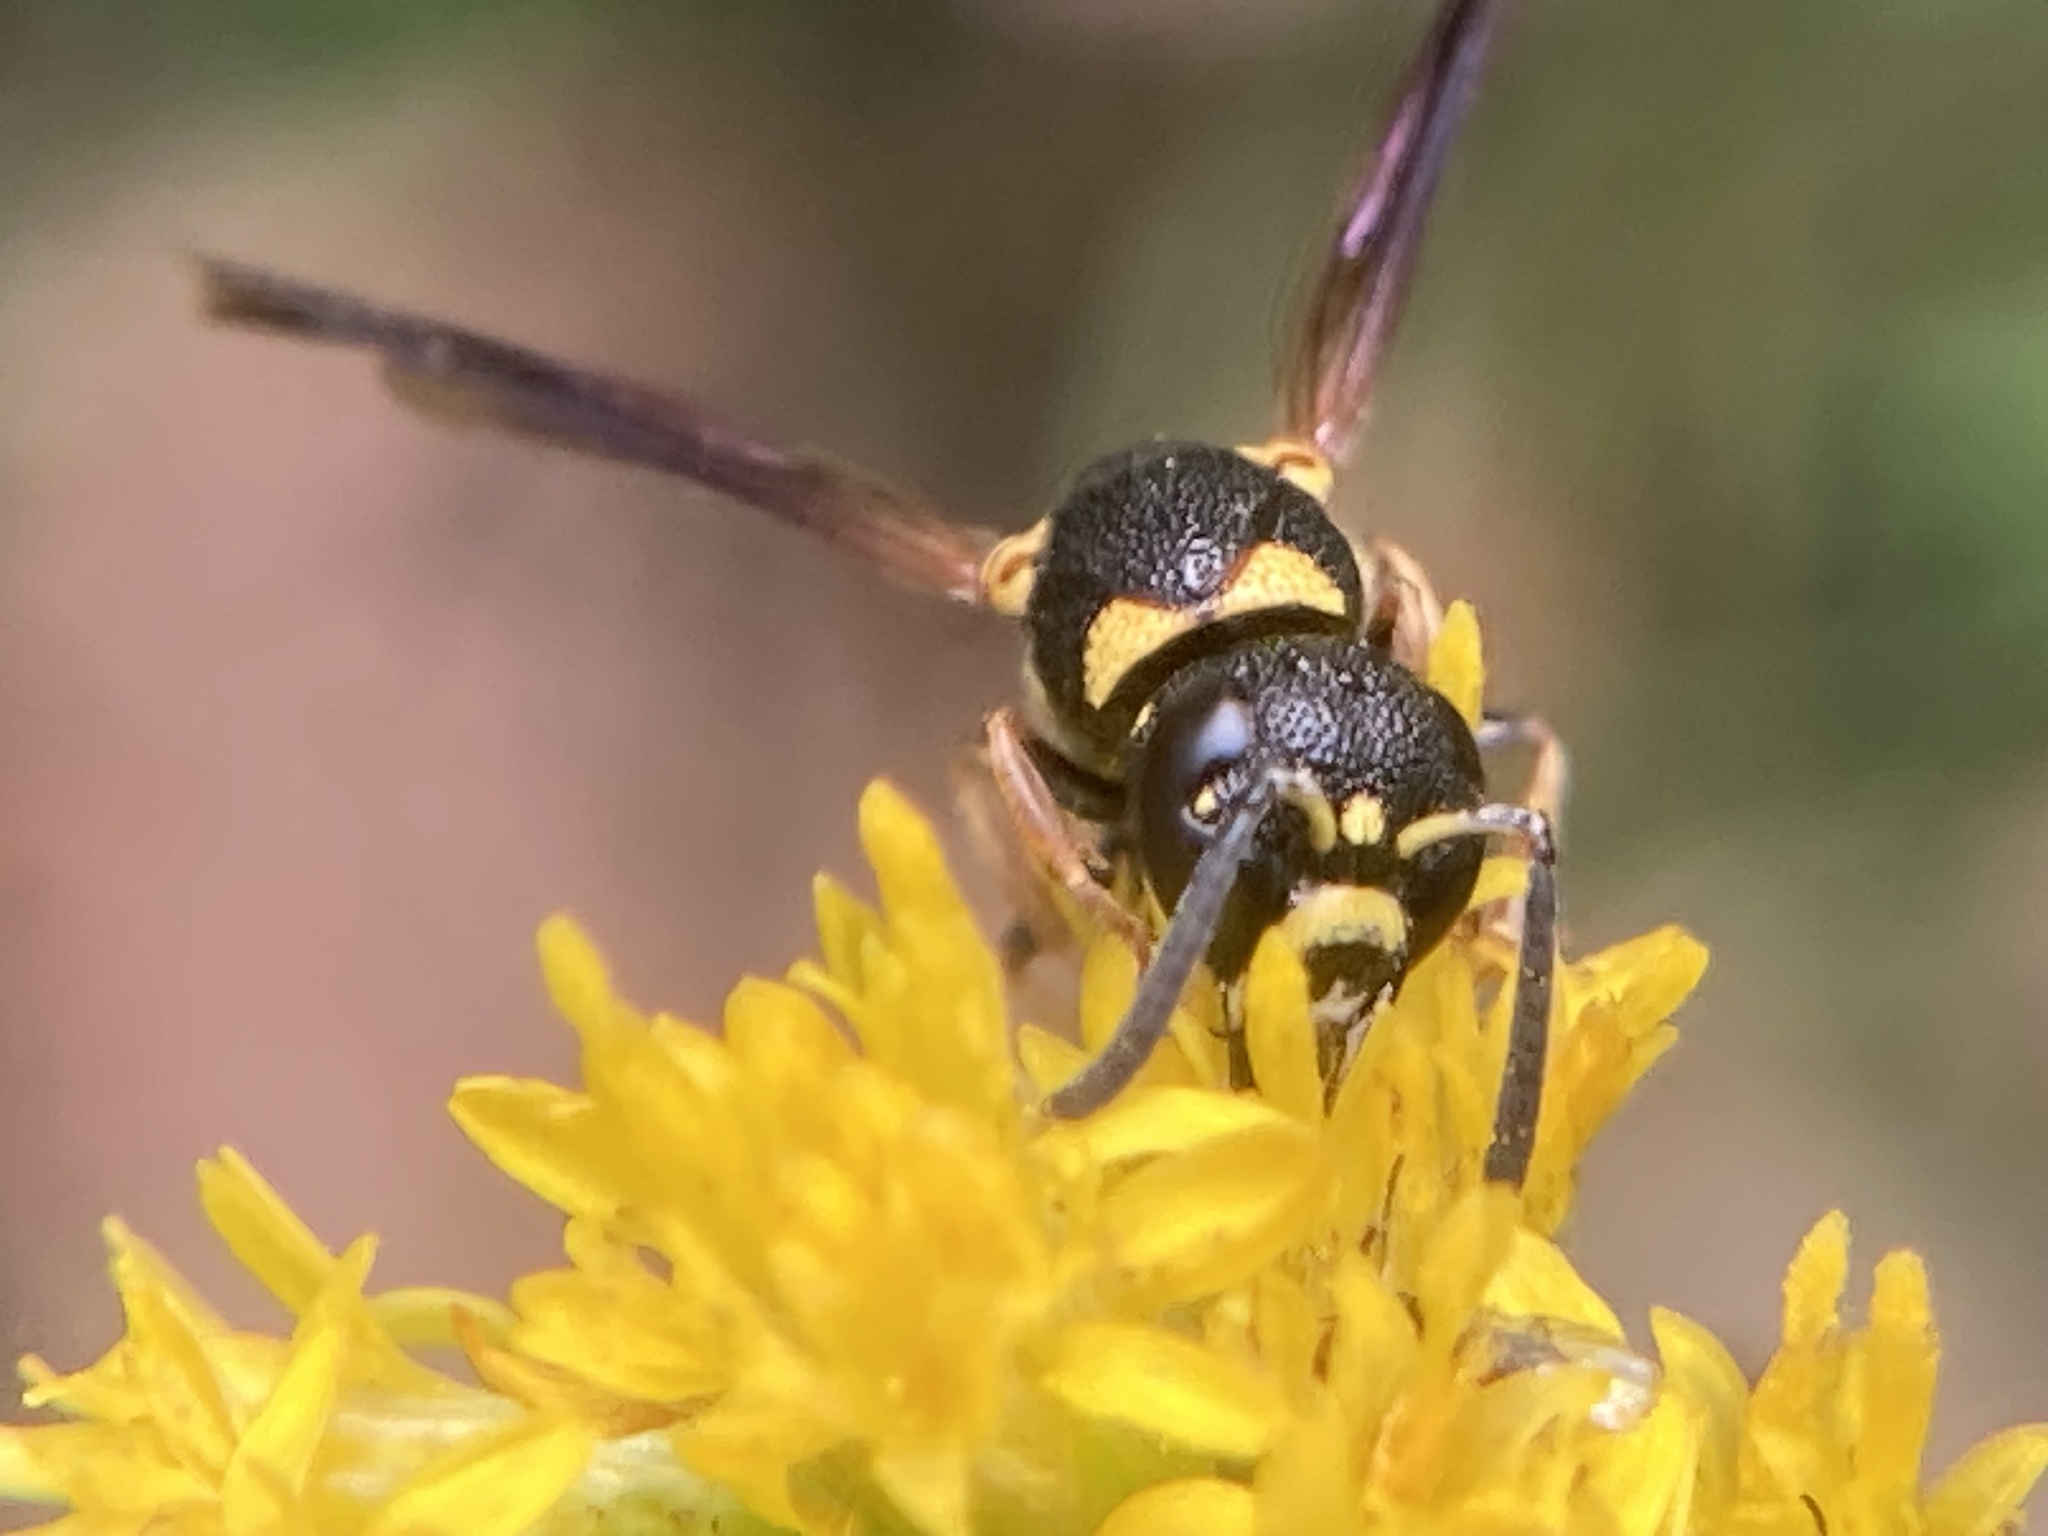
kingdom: Animalia
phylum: Arthropoda
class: Insecta
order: Hymenoptera
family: Eumenidae
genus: Parancistrocerus
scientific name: Parancistrocerus perennis
